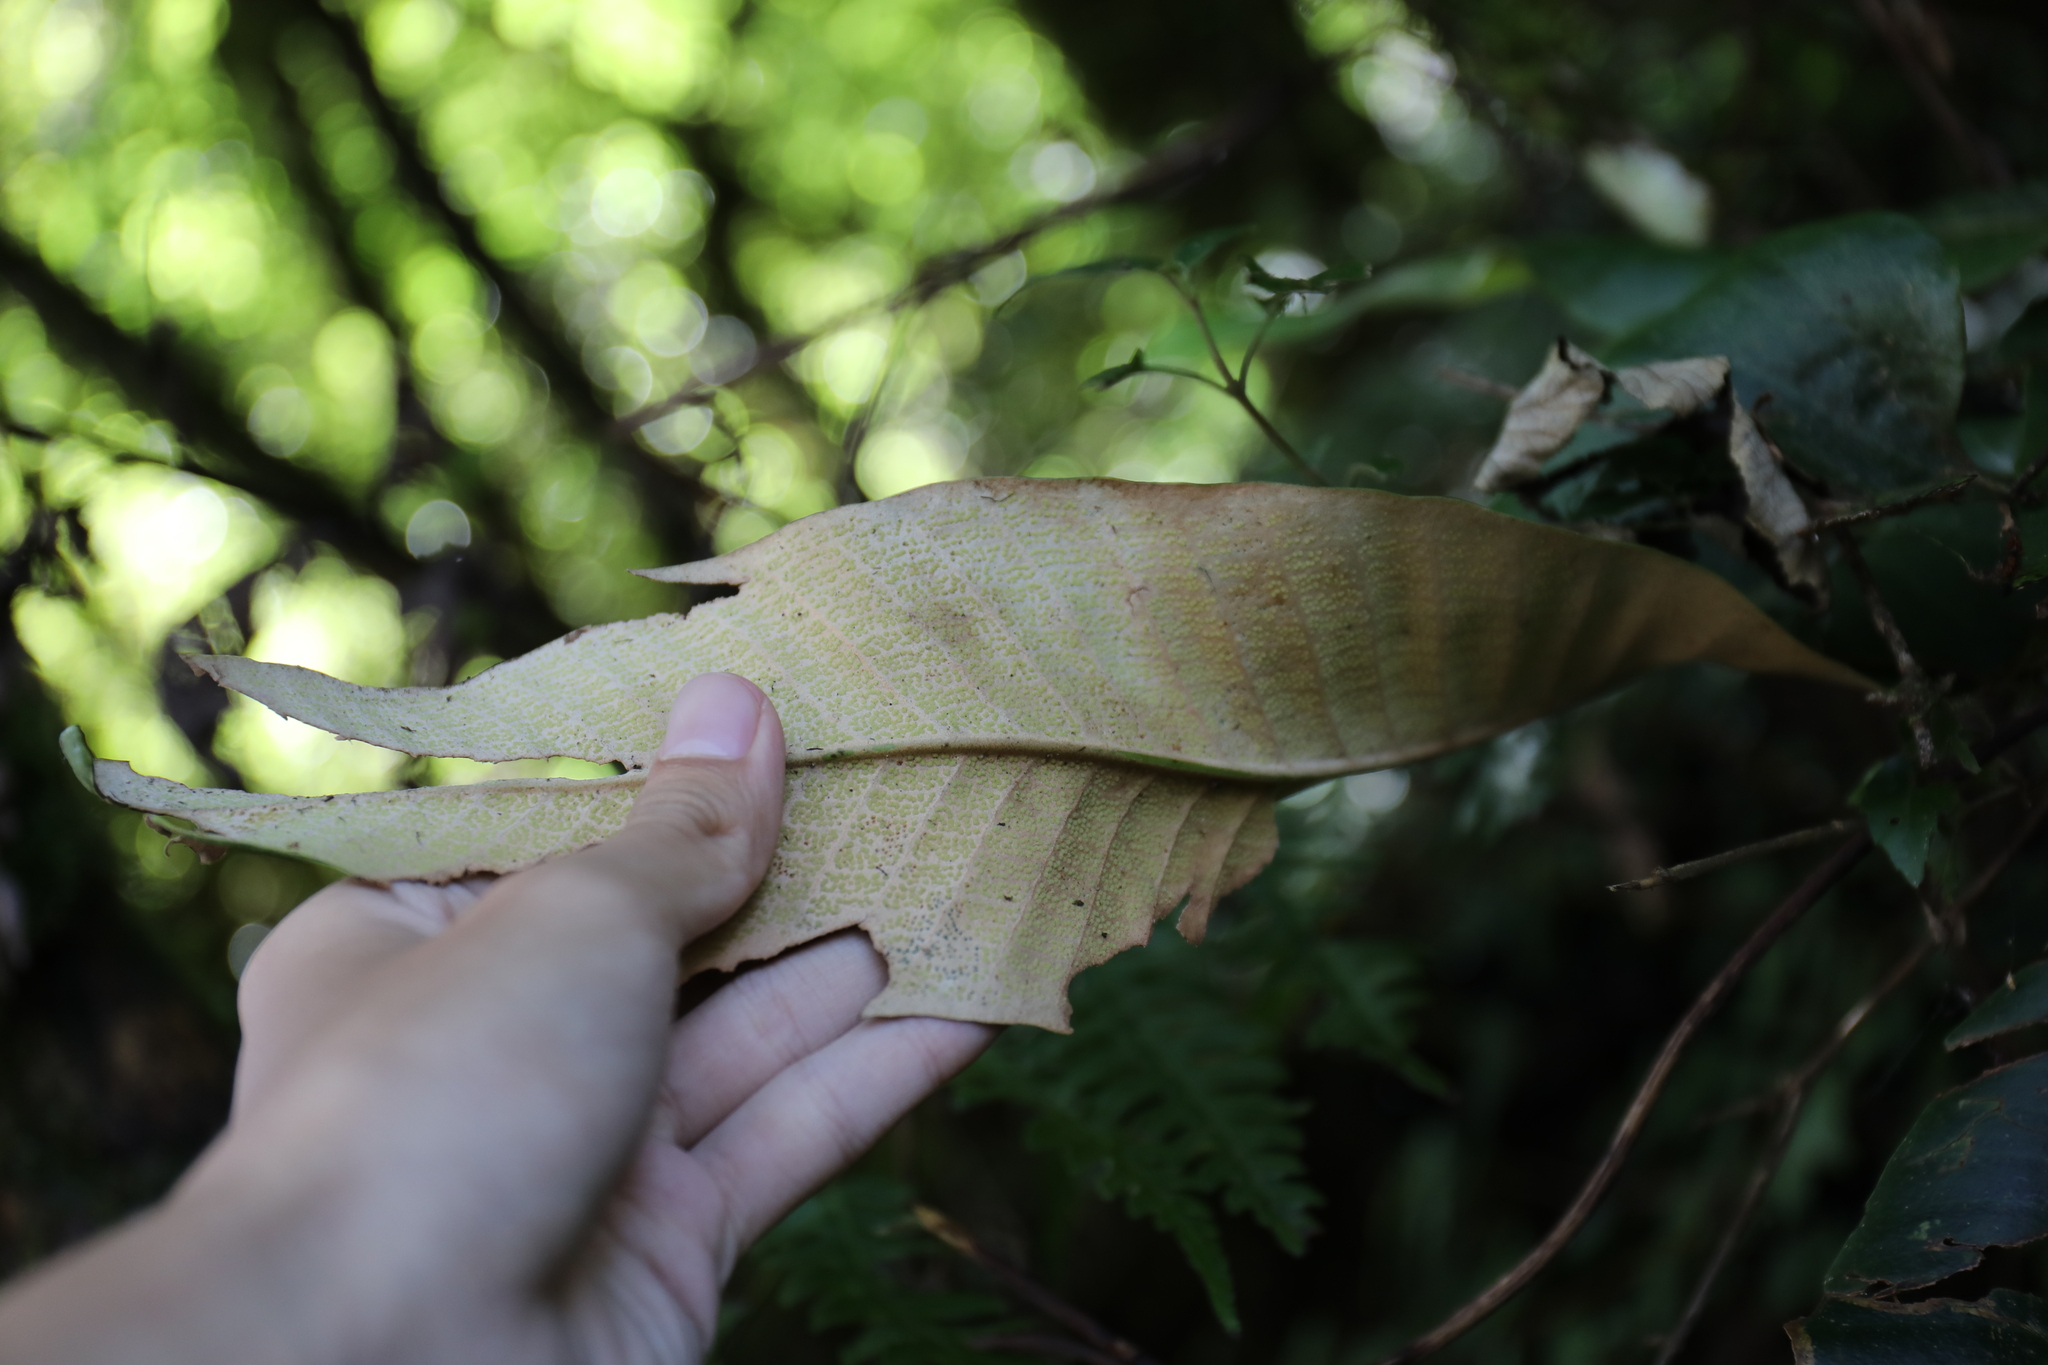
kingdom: Plantae
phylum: Tracheophyta
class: Polypodiopsida
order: Polypodiales
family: Polypodiaceae
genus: Pyrrosia
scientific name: Pyrrosia sheareri
